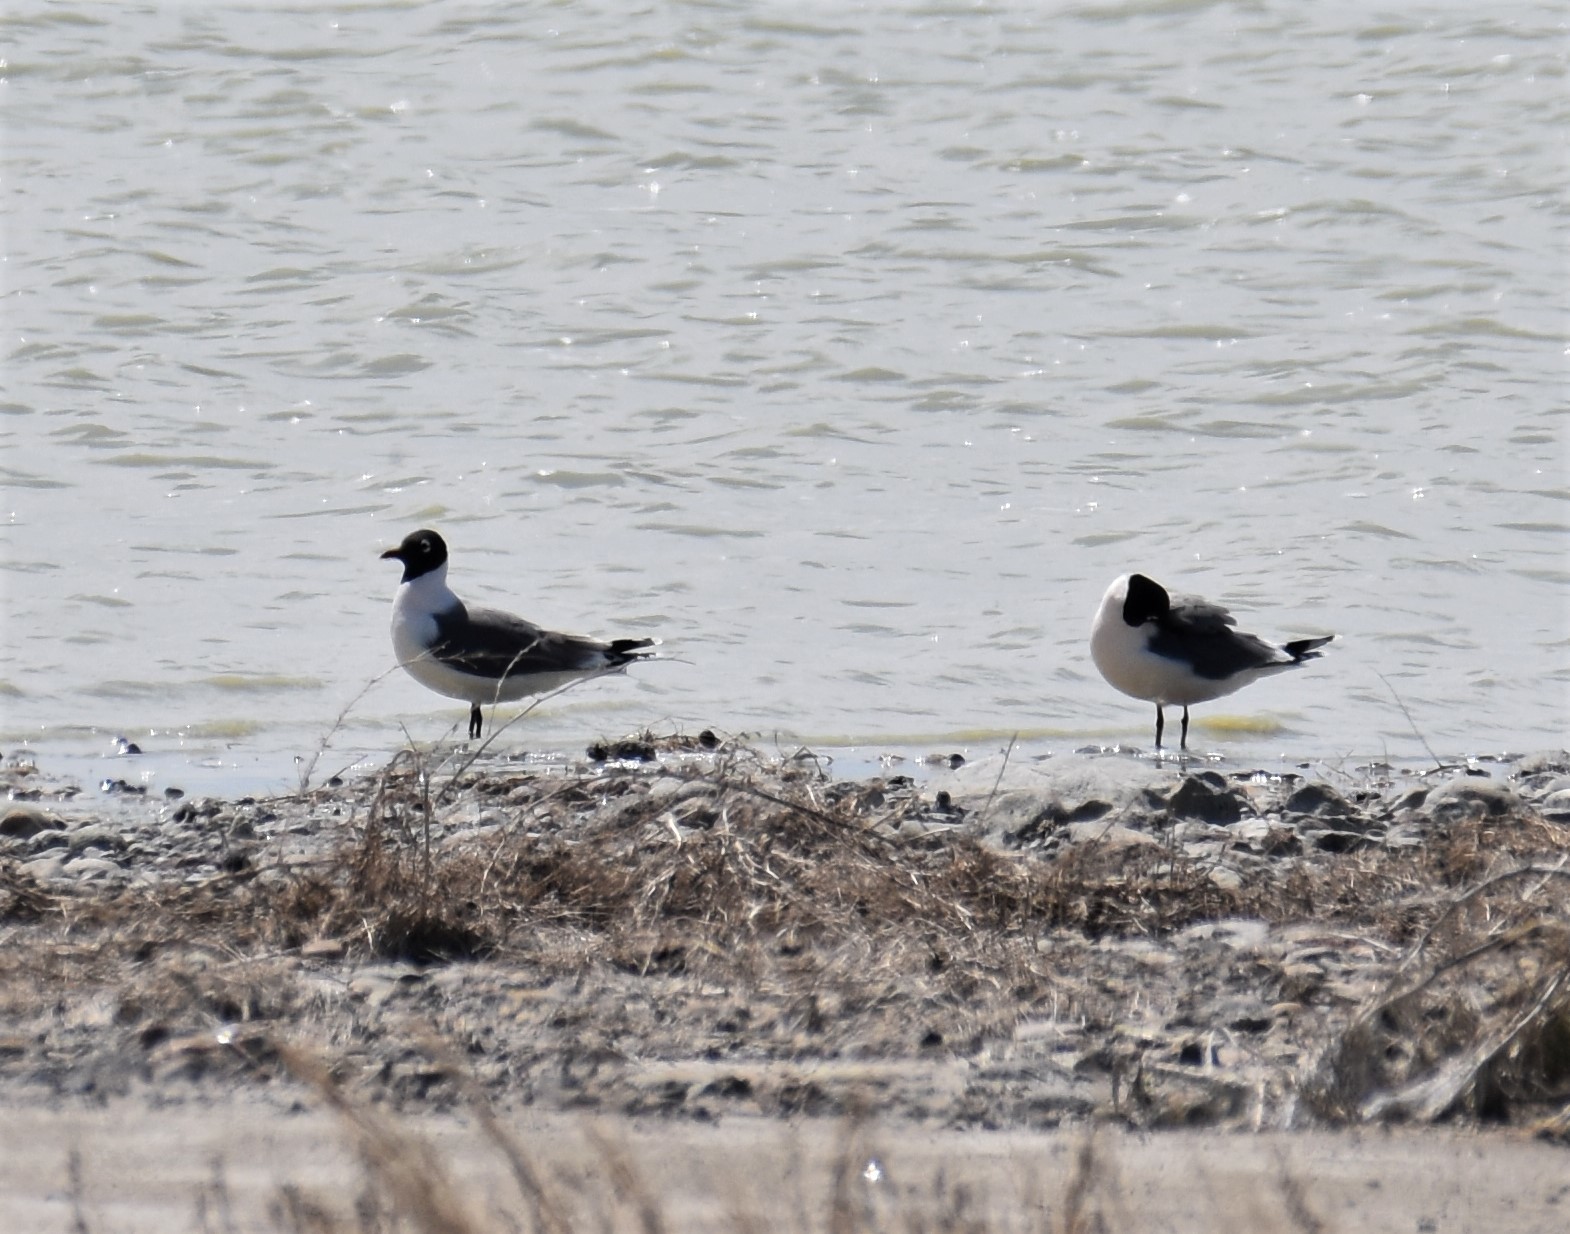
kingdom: Animalia
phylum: Chordata
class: Aves
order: Charadriiformes
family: Laridae
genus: Leucophaeus
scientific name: Leucophaeus pipixcan
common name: Franklin's gull
